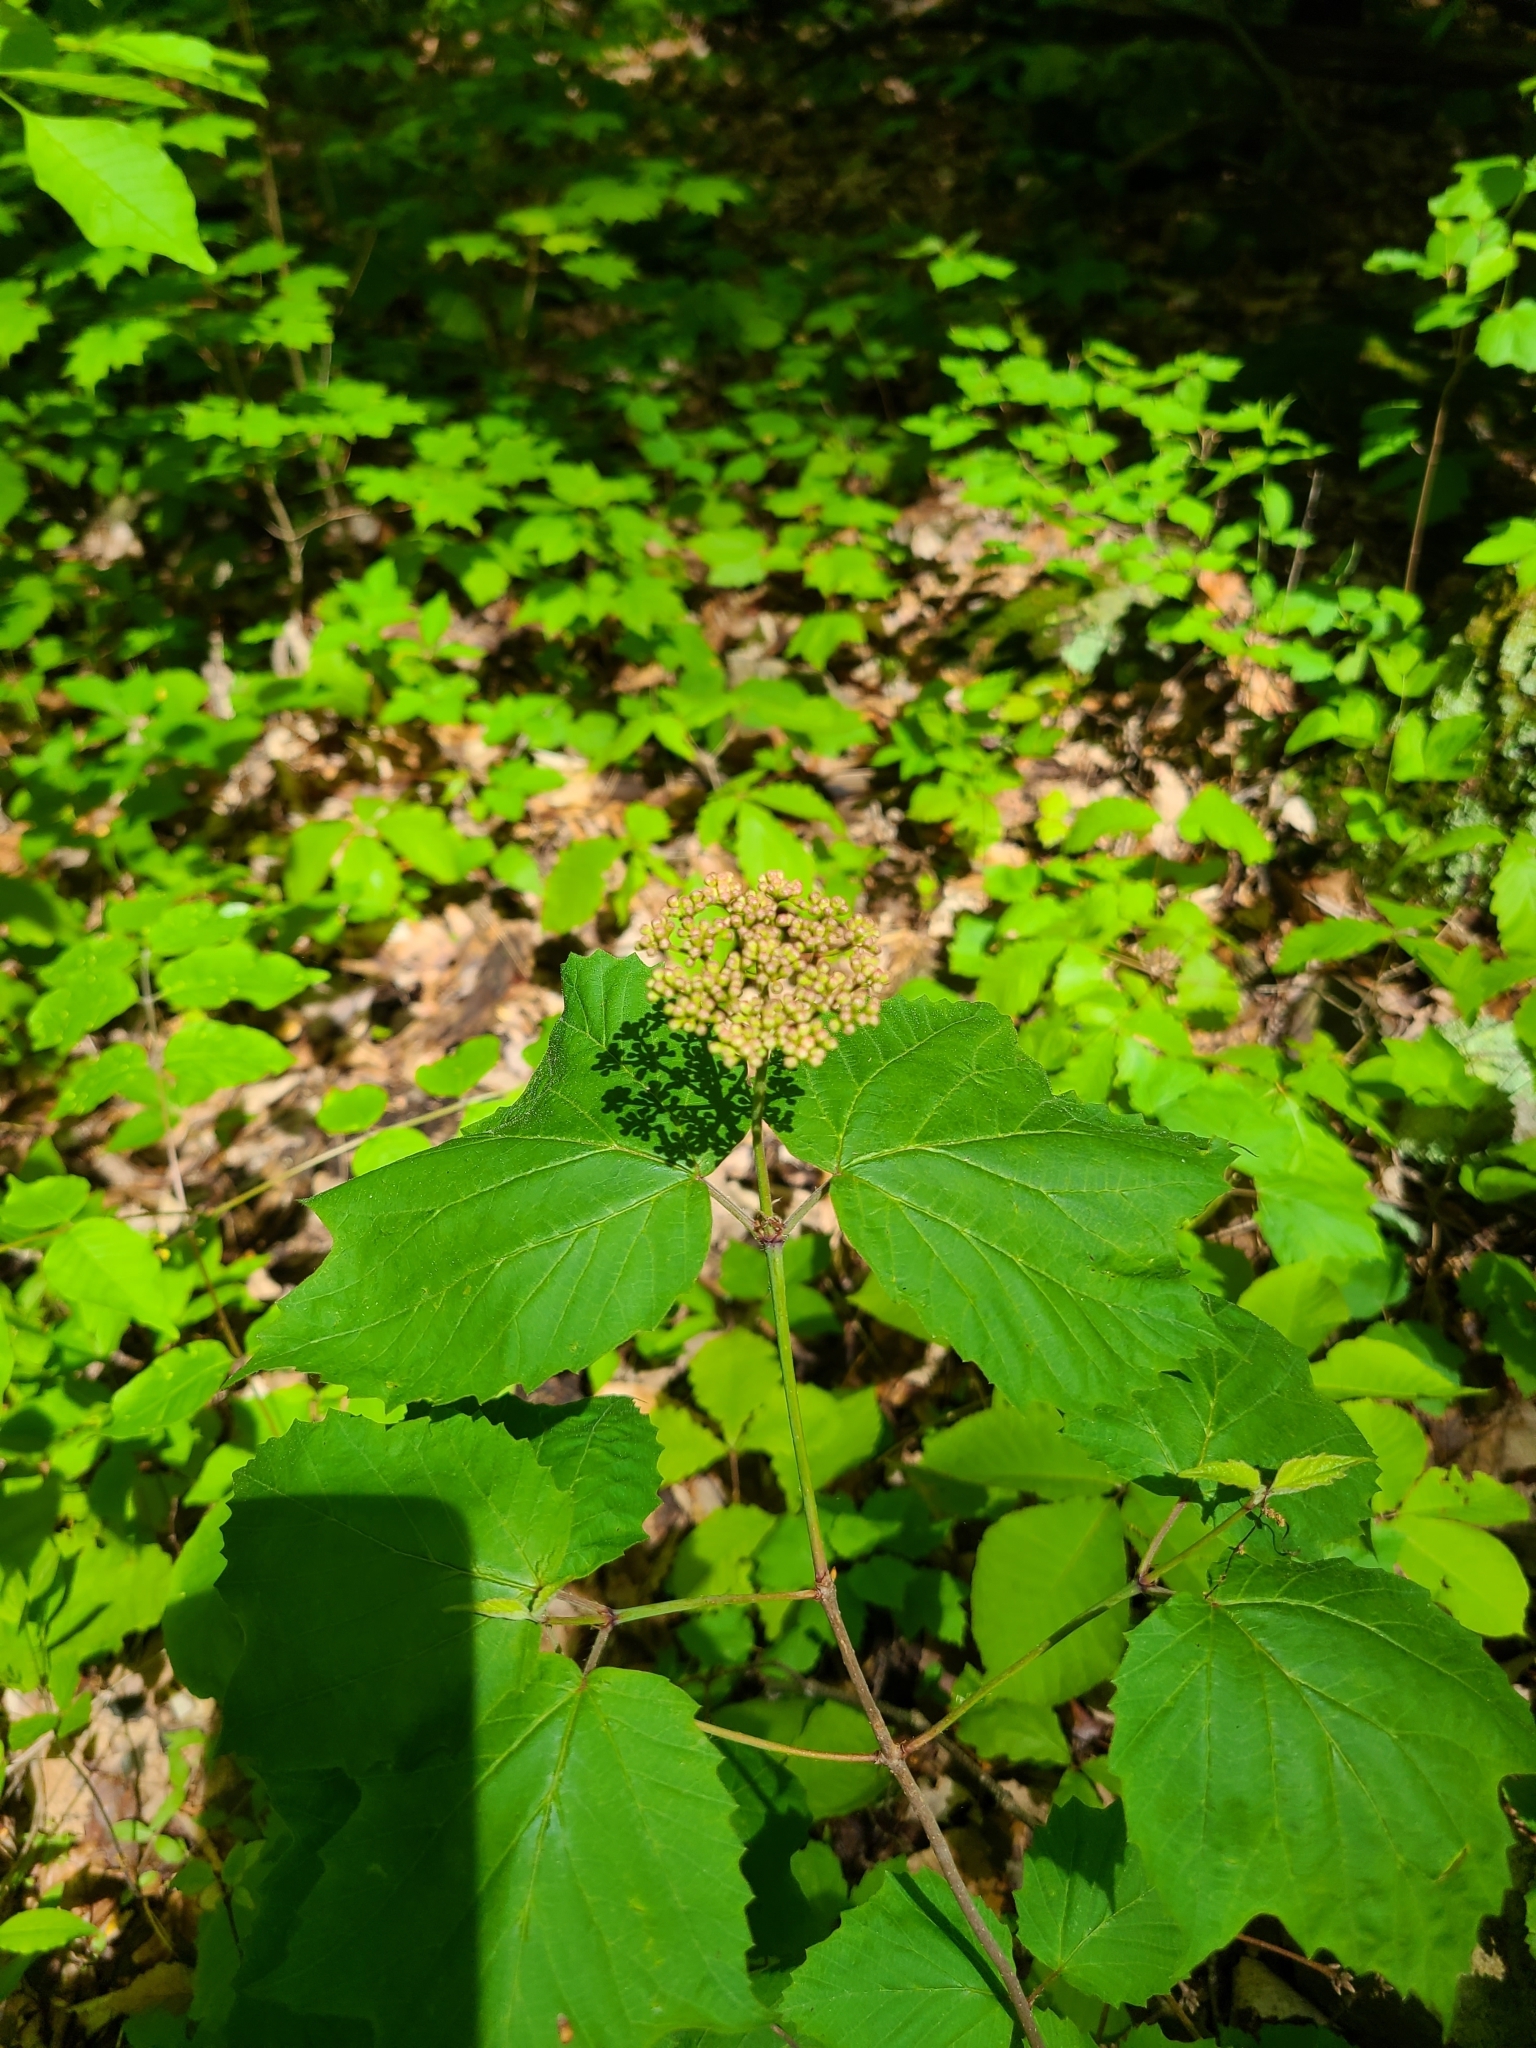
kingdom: Plantae
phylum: Tracheophyta
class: Magnoliopsida
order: Dipsacales
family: Viburnaceae
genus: Viburnum
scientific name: Viburnum acerifolium
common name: Dockmackie
